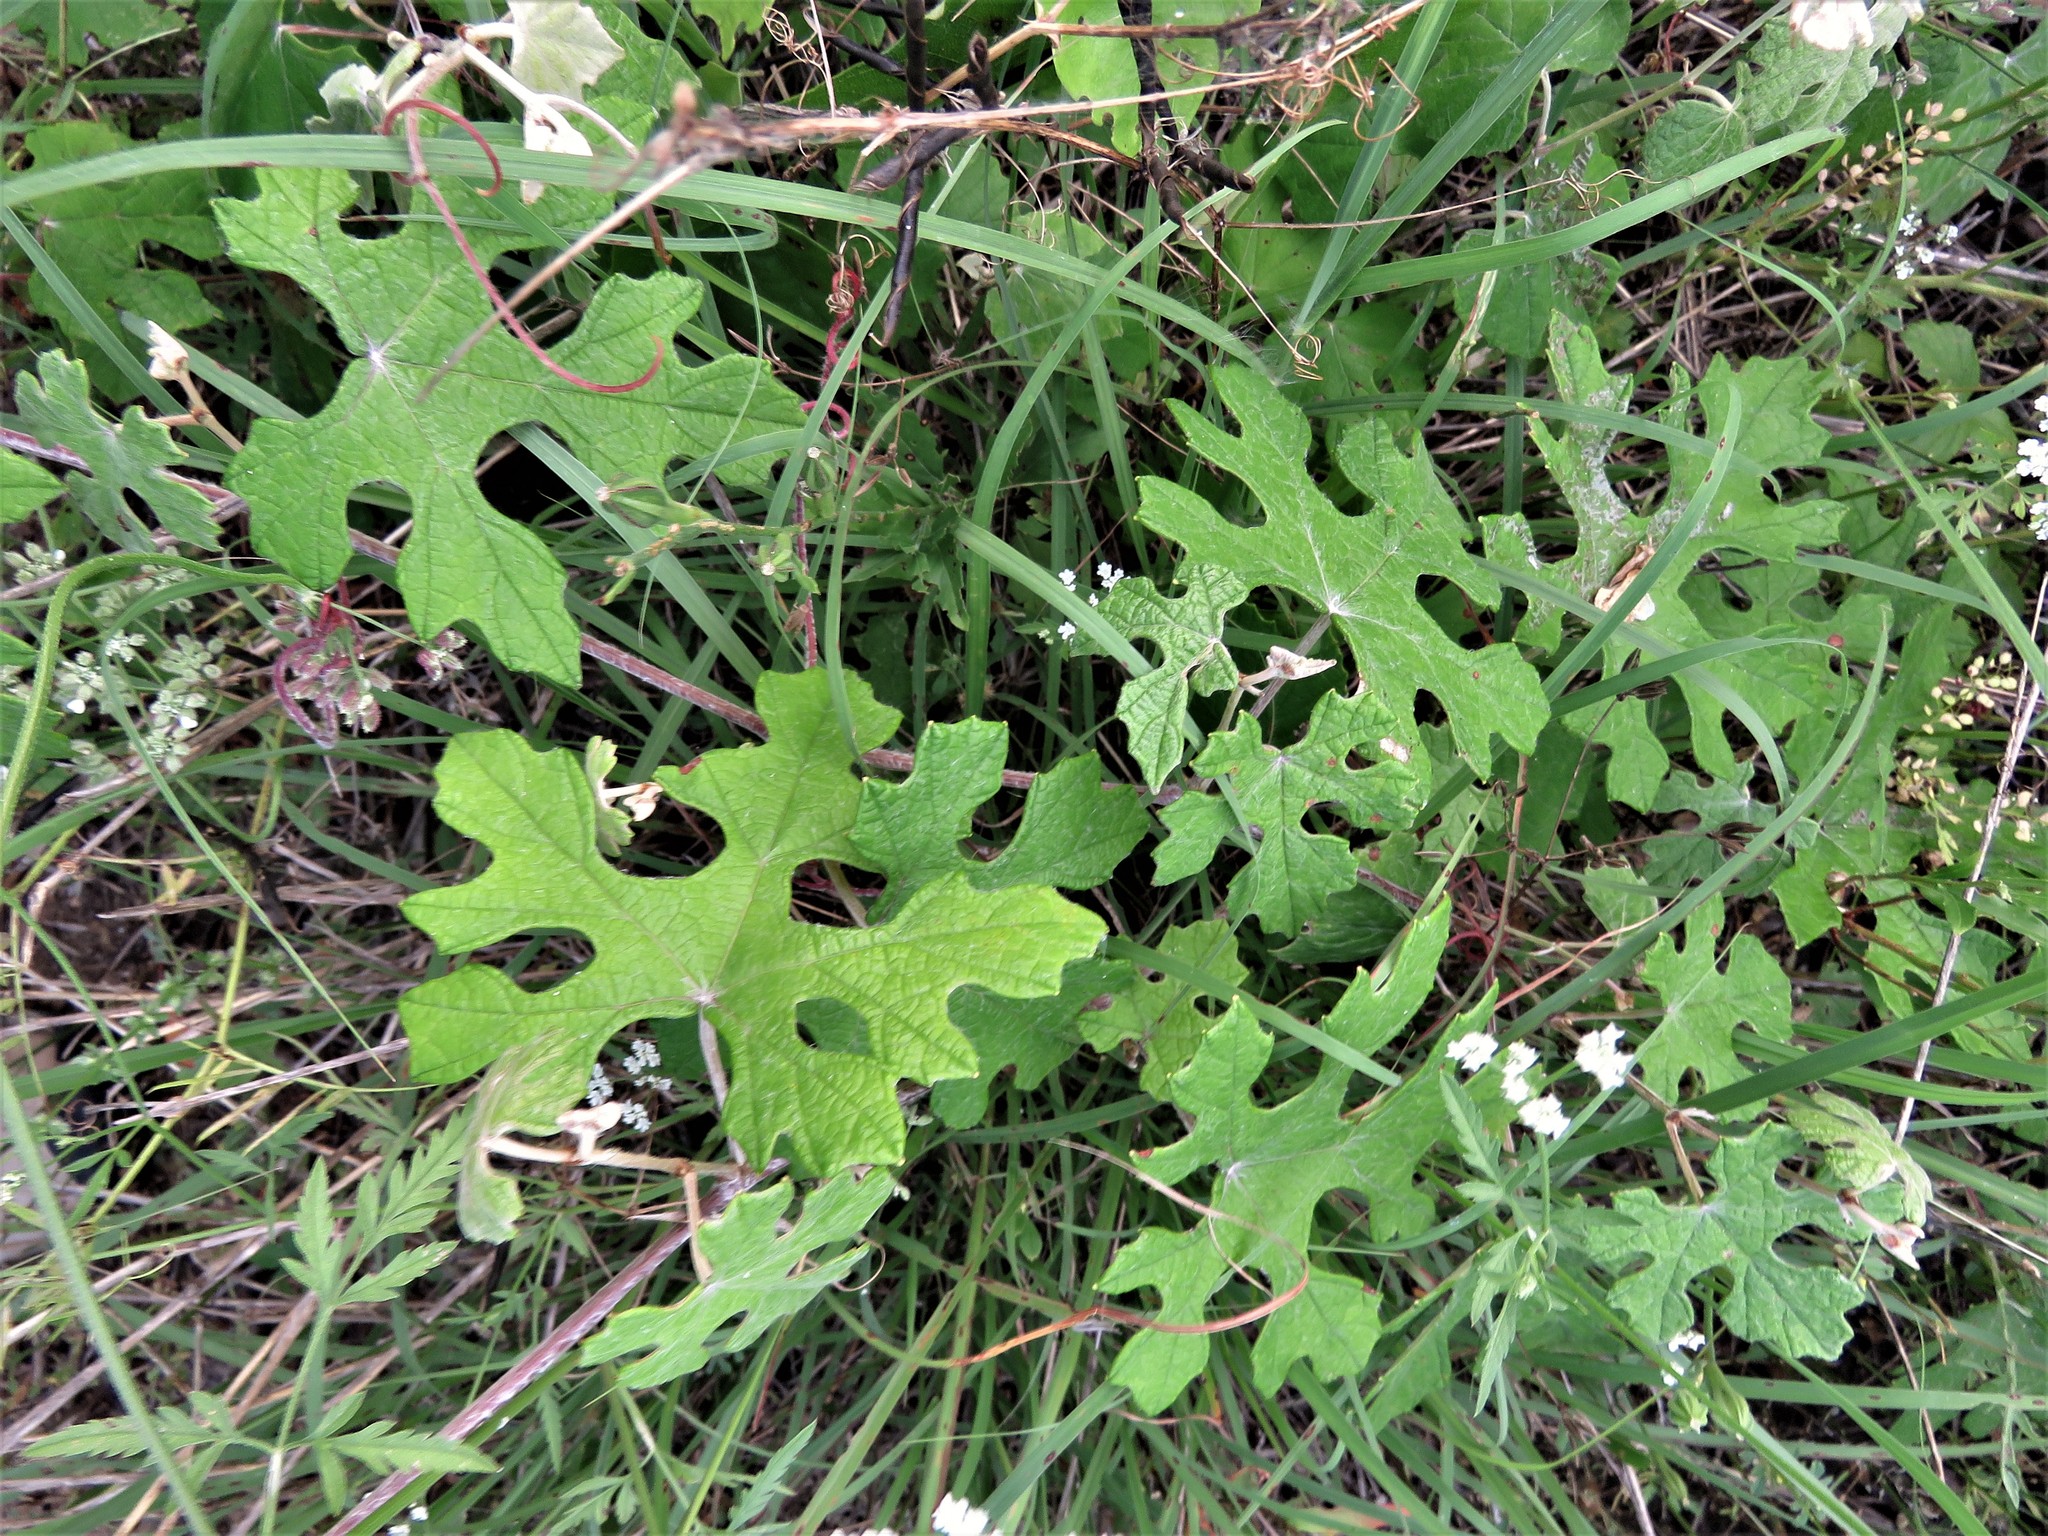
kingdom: Plantae
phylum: Tracheophyta
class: Magnoliopsida
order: Vitales
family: Vitaceae
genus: Vitis
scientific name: Vitis mustangensis
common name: Mustang grape
